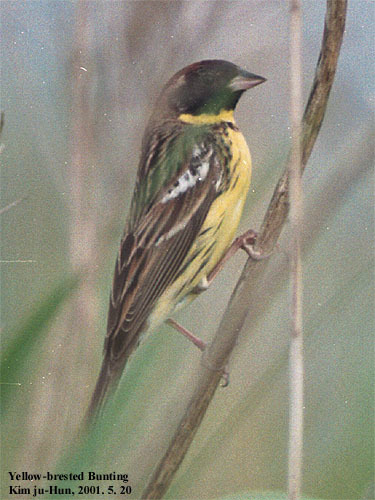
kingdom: Animalia
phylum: Chordata
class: Aves
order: Passeriformes
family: Emberizidae
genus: Emberiza
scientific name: Emberiza aureola
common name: Yellow-breasted bunting
